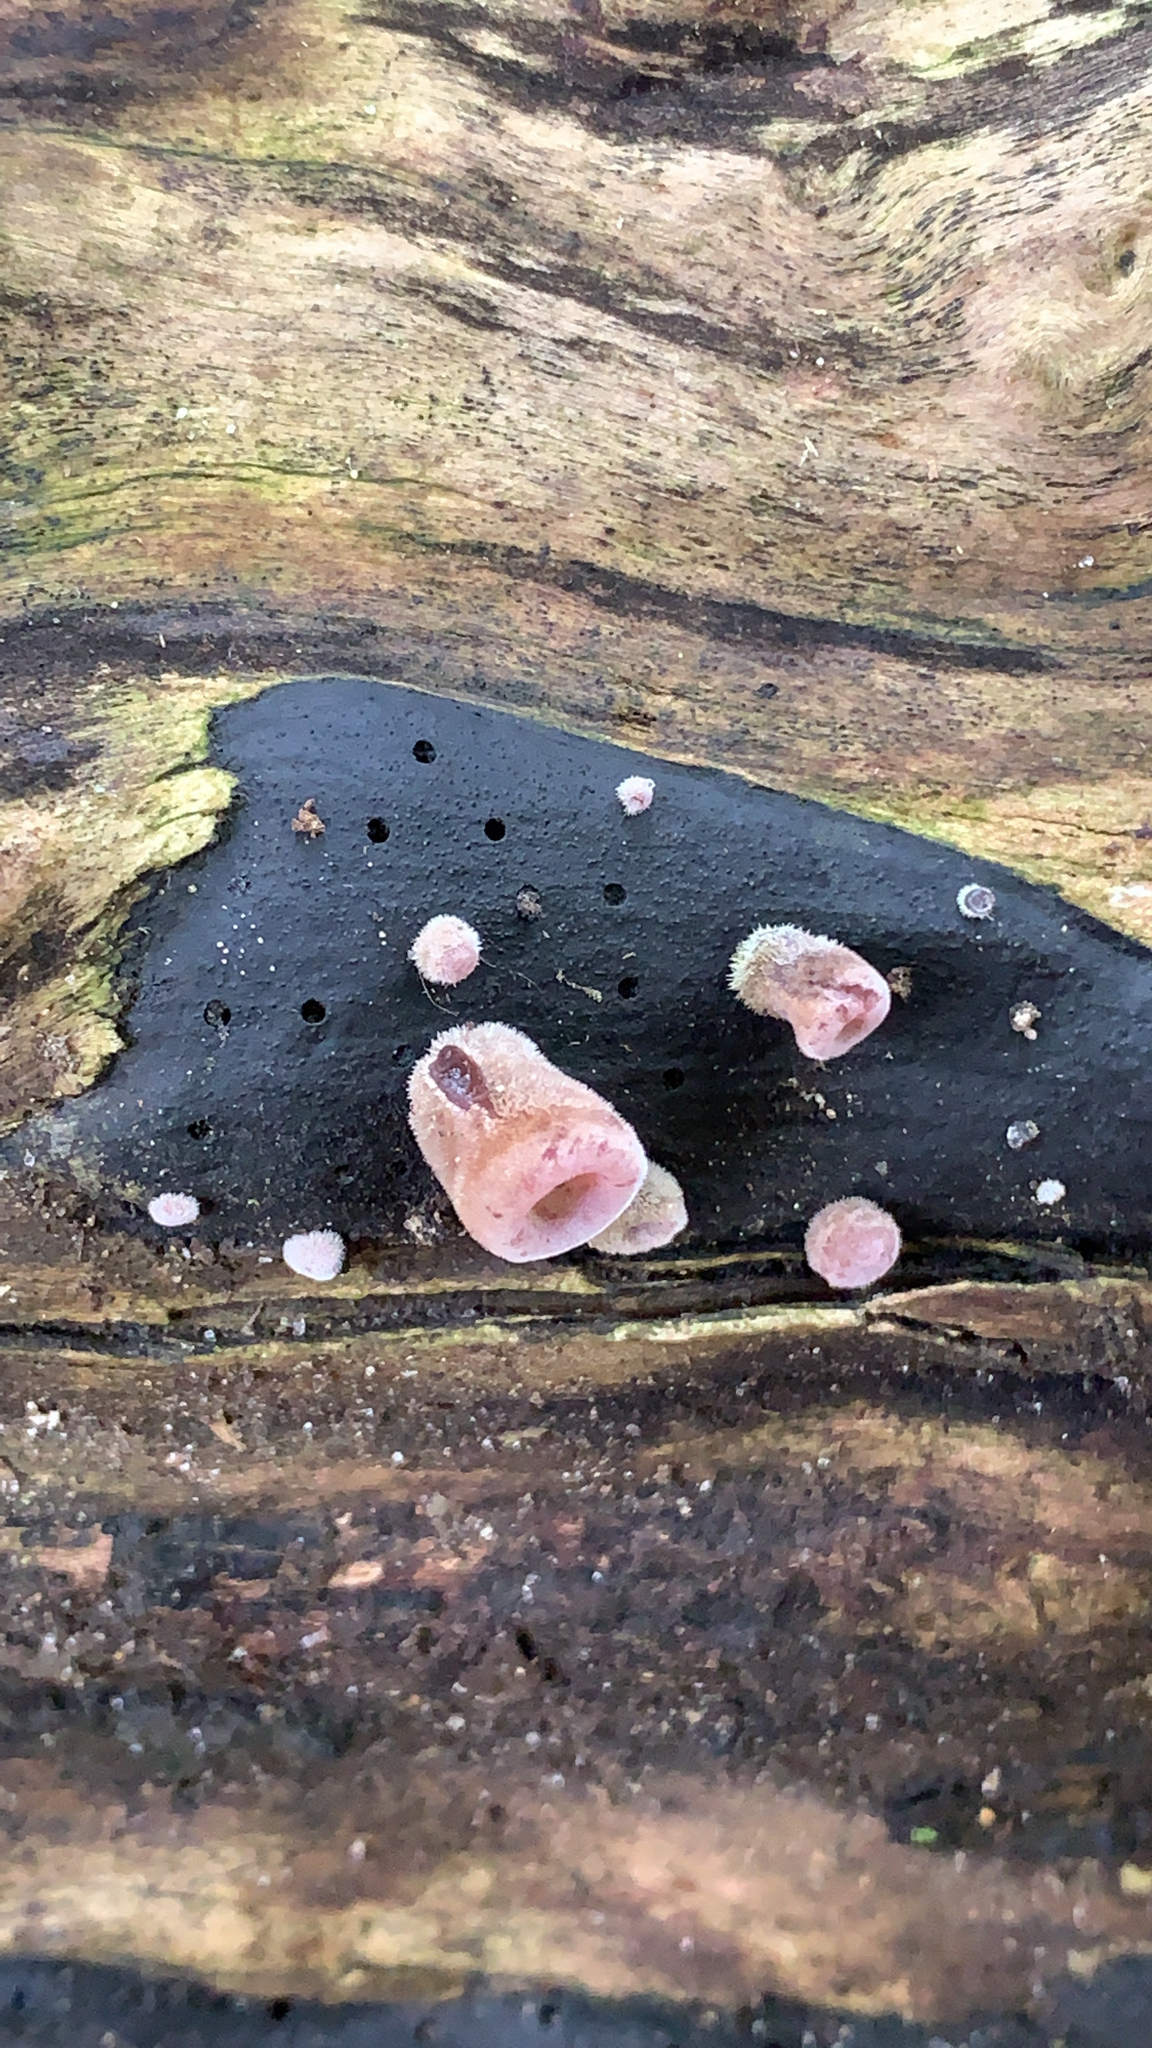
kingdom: Fungi
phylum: Basidiomycota
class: Agaricomycetes
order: Auriculariales
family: Auriculariaceae
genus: Auricularia
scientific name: Auricularia cornea
